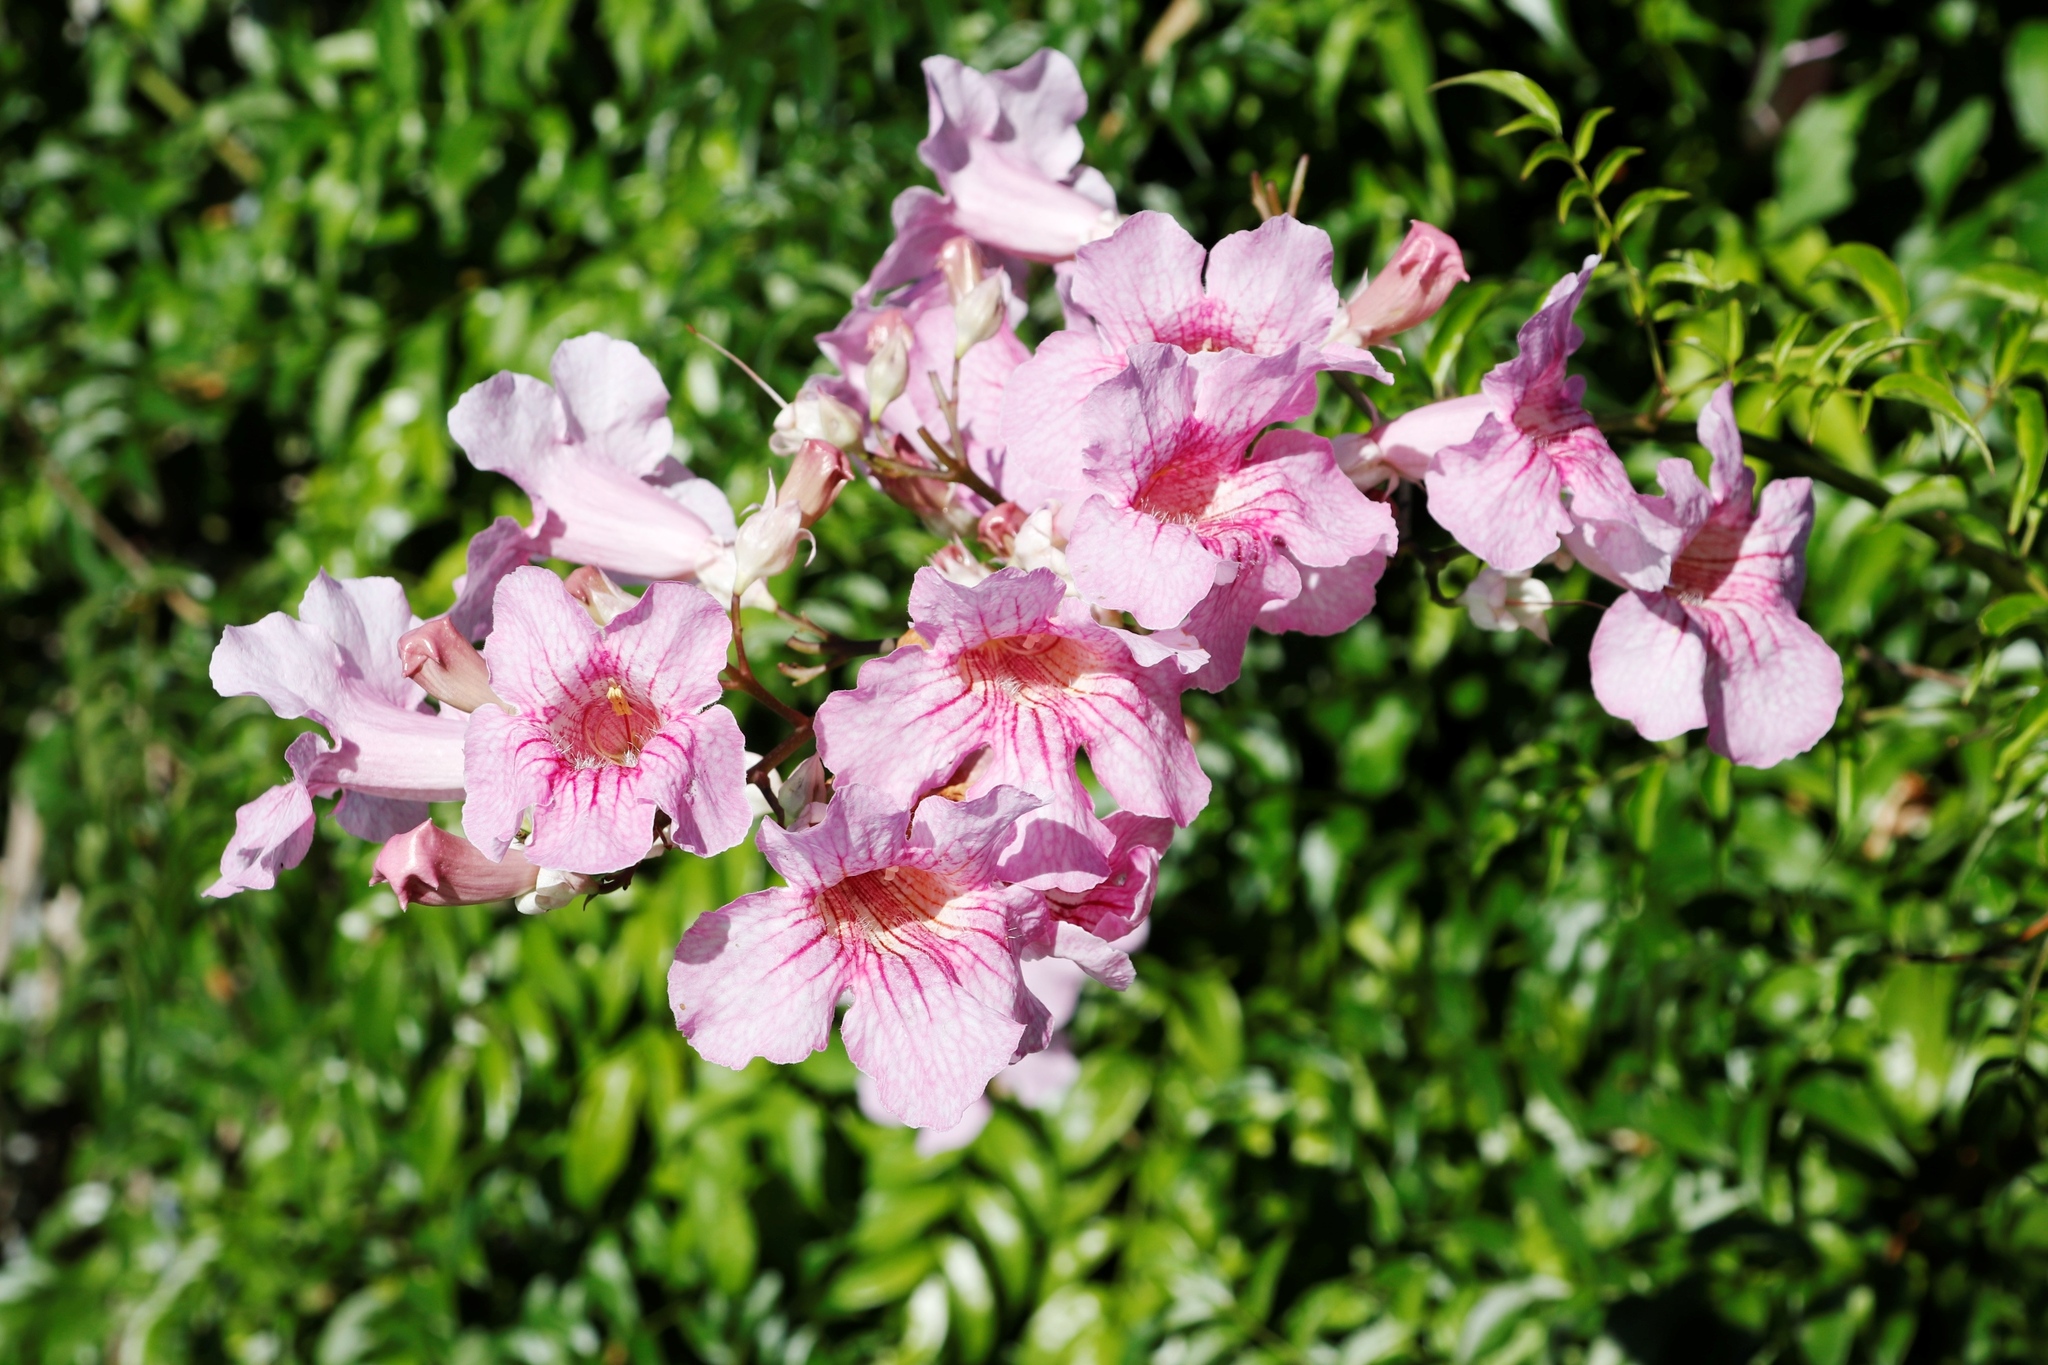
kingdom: Plantae
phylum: Tracheophyta
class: Magnoliopsida
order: Lamiales
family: Bignoniaceae
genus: Podranea
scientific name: Podranea ricasoliana
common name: Zimbabwe creeper
